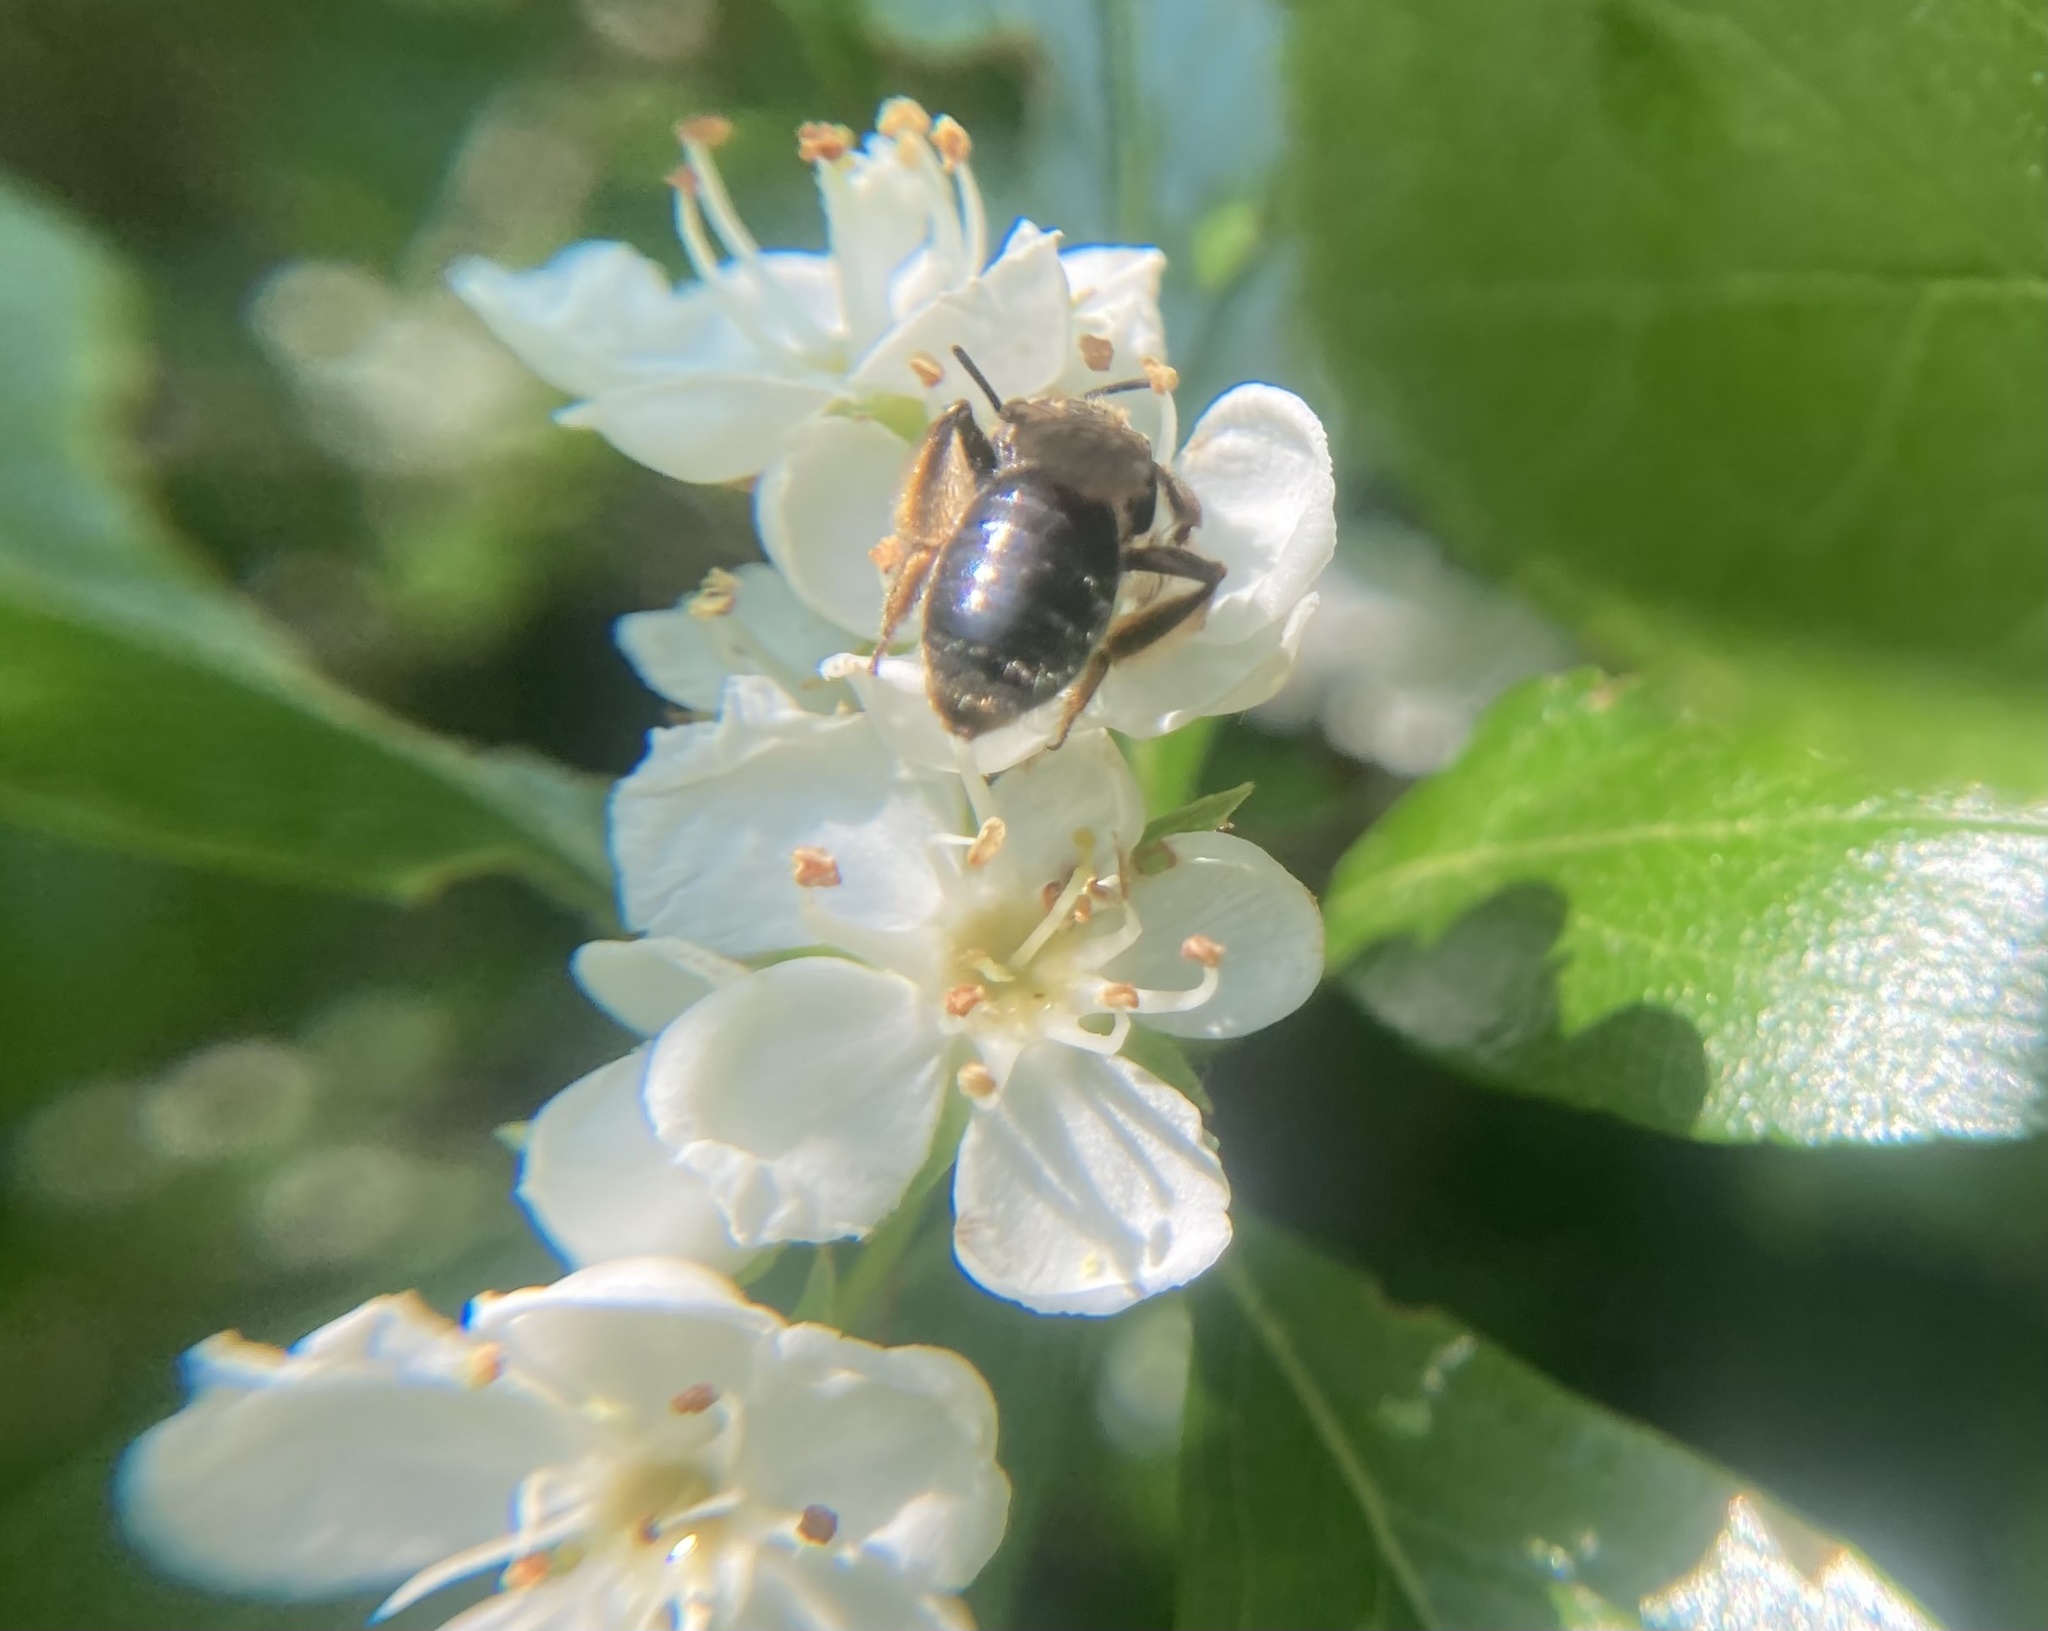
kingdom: Animalia
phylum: Arthropoda
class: Insecta
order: Hymenoptera
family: Andrenidae
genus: Andrena
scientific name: Andrena
